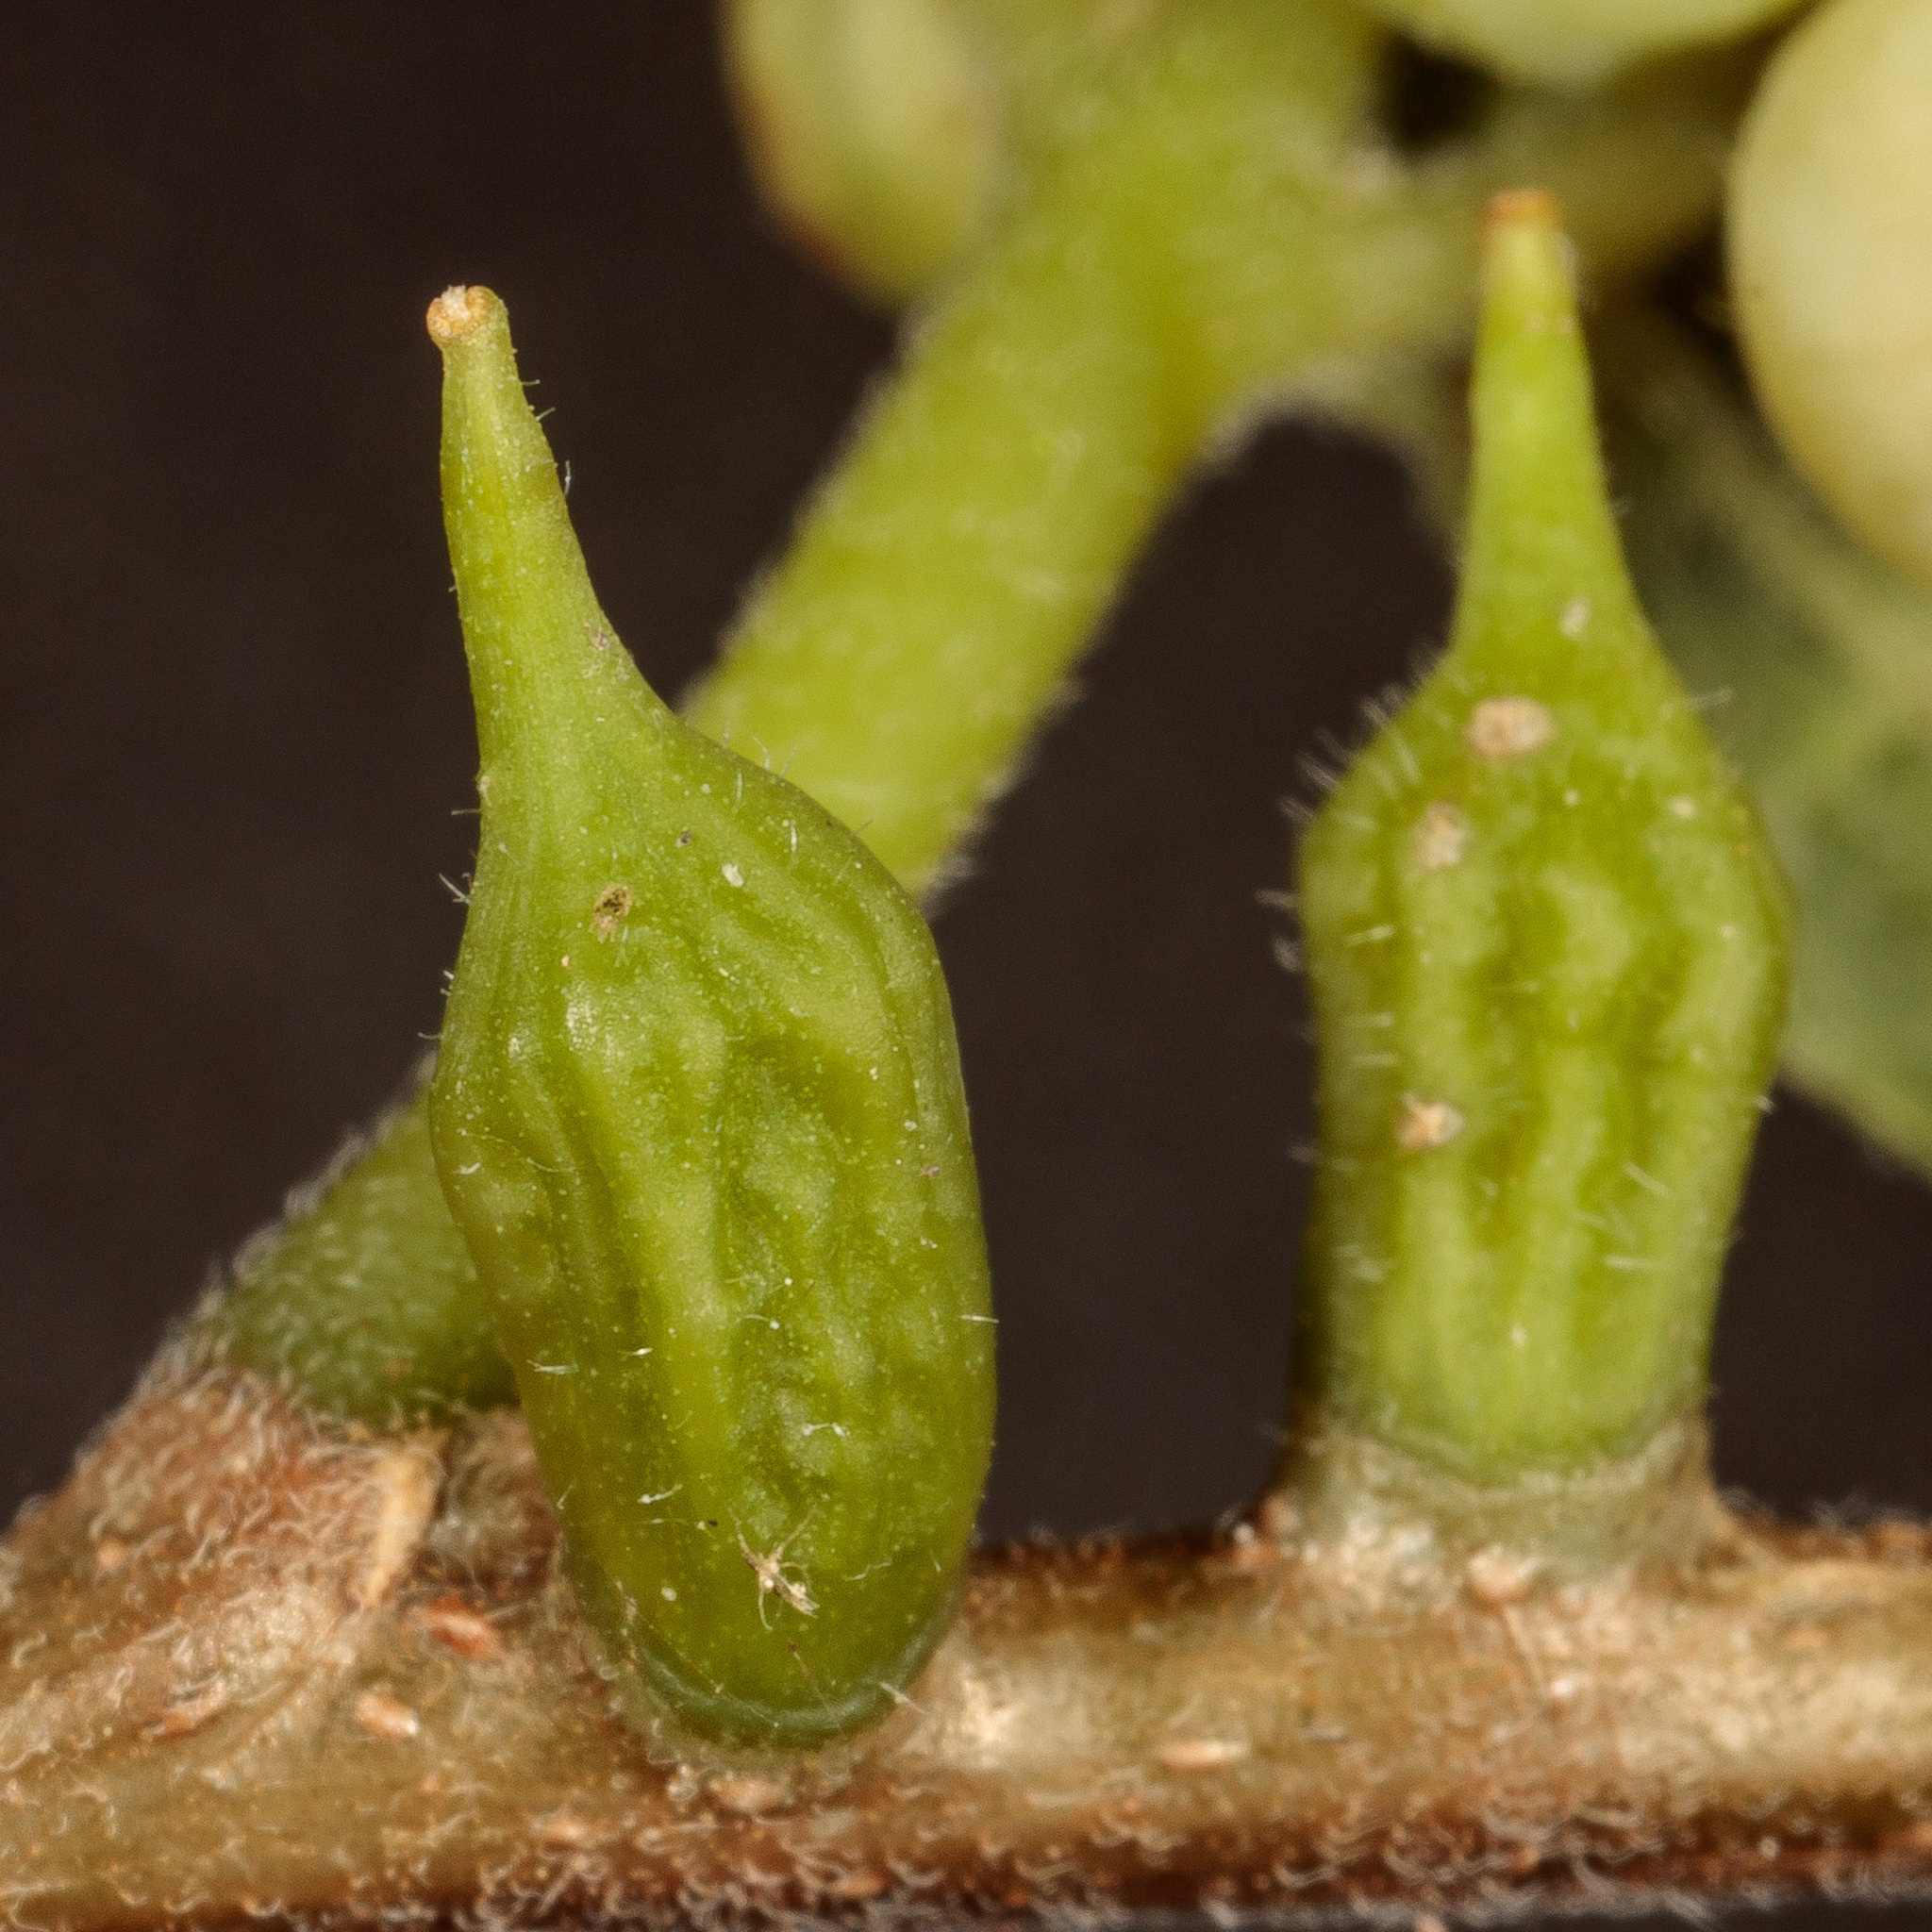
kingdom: Animalia
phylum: Arthropoda
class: Insecta
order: Diptera
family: Cecidomyiidae
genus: Celticecis
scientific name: Celticecis ramicola
